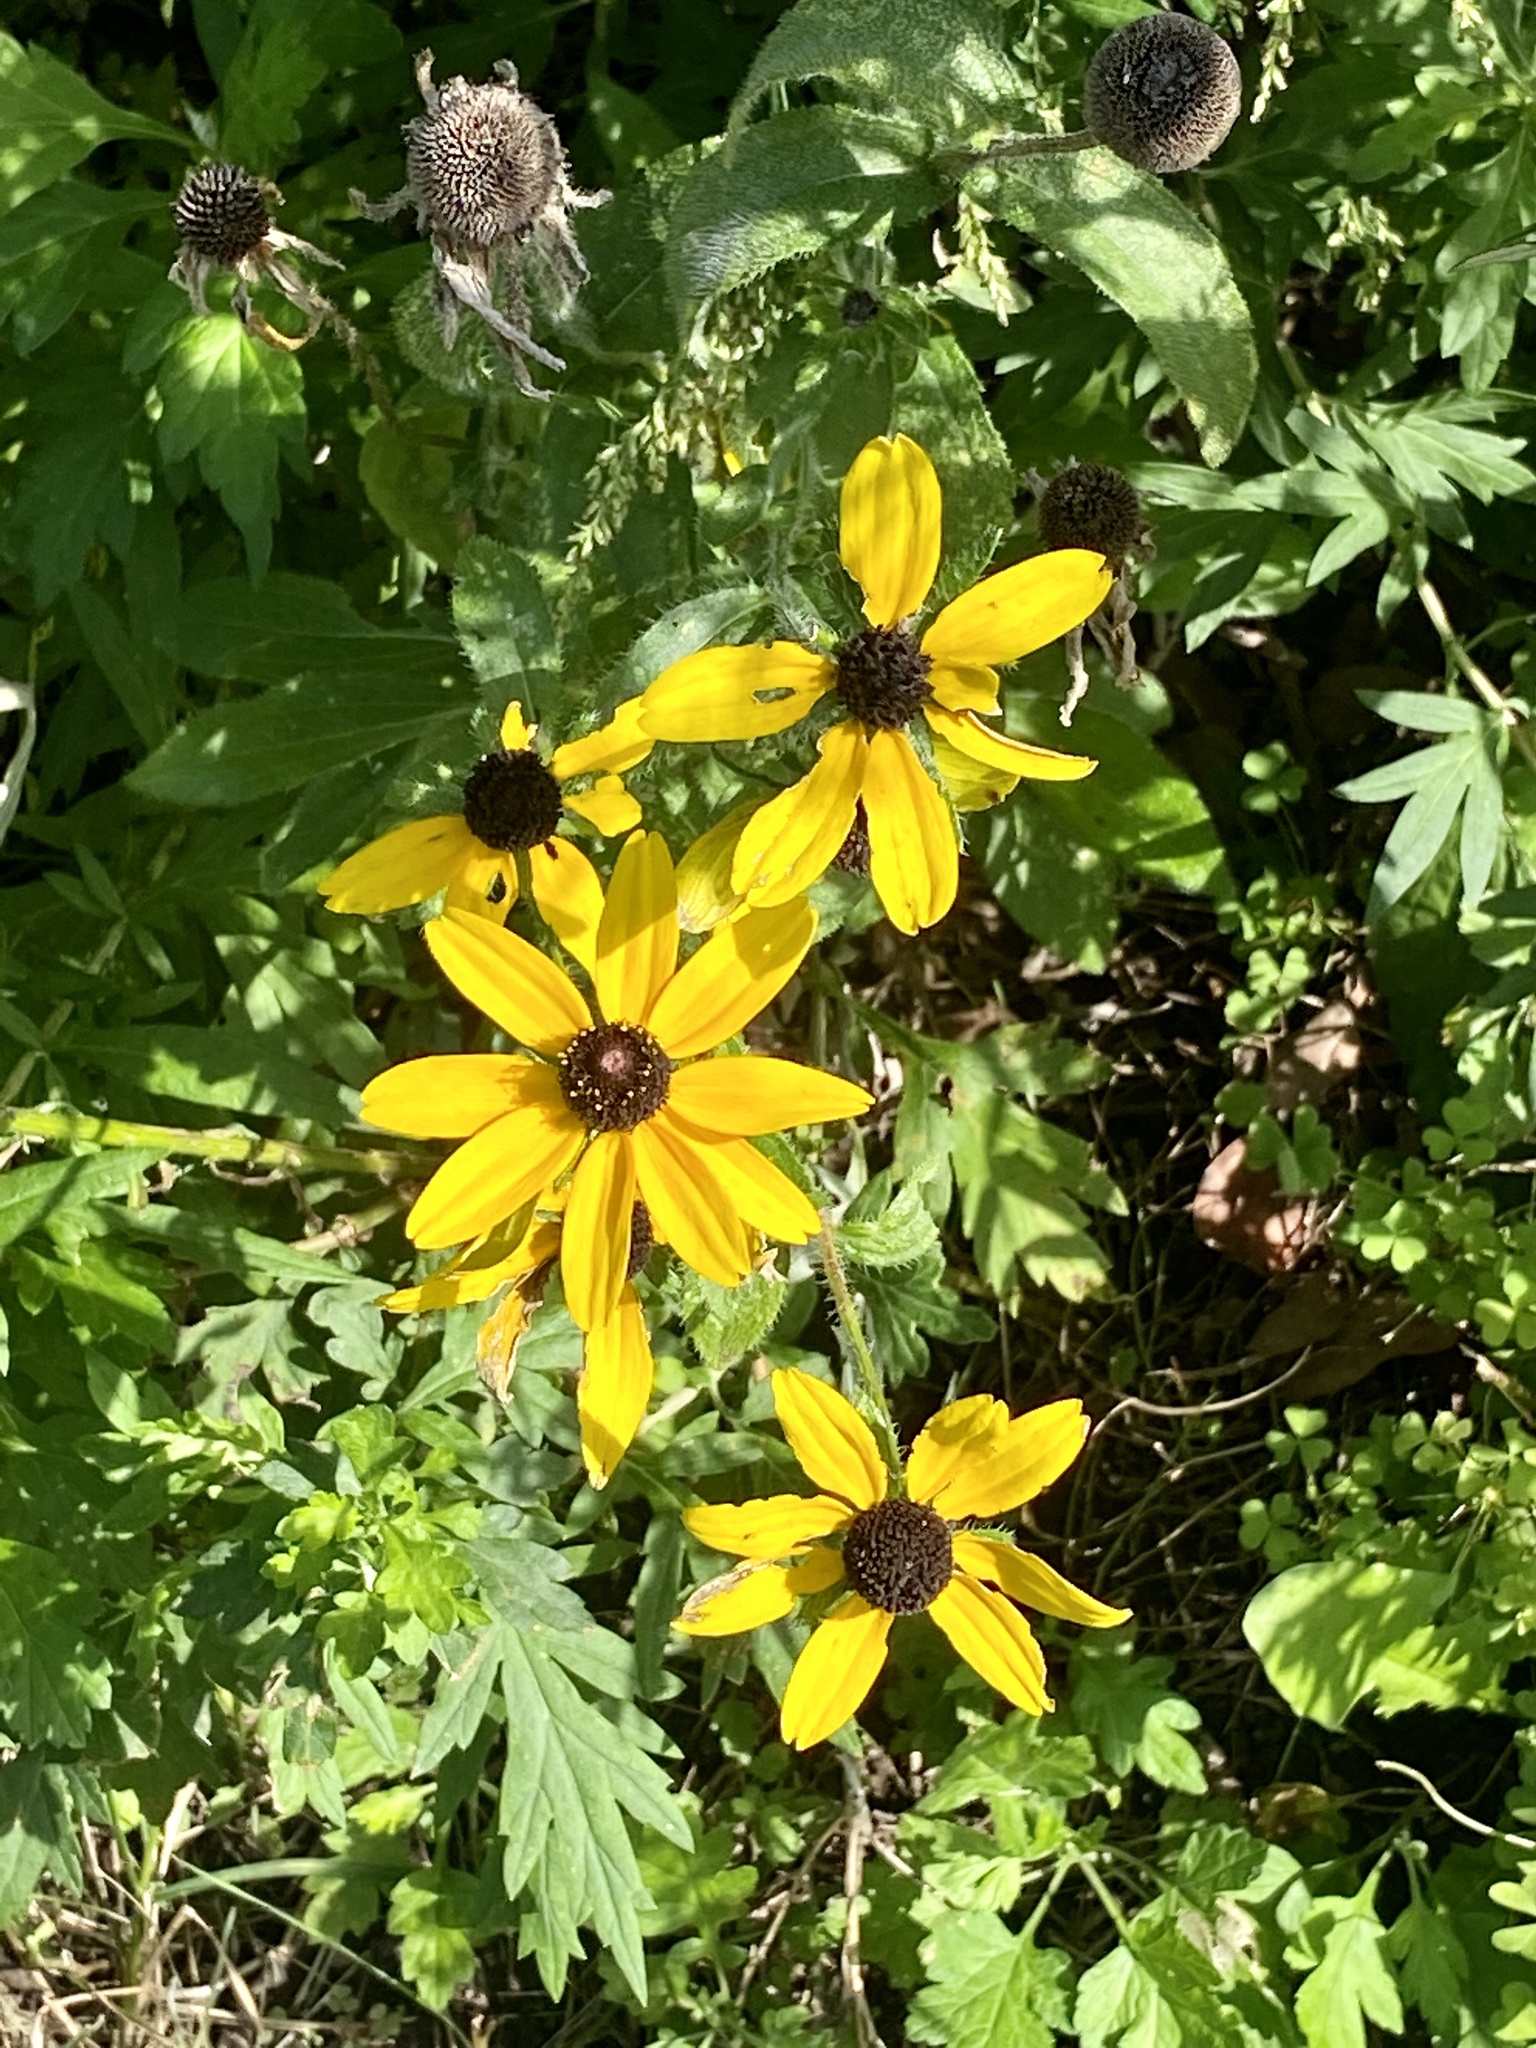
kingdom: Plantae
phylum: Tracheophyta
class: Magnoliopsida
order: Asterales
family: Asteraceae
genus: Rudbeckia
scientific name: Rudbeckia hirta
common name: Black-eyed-susan
